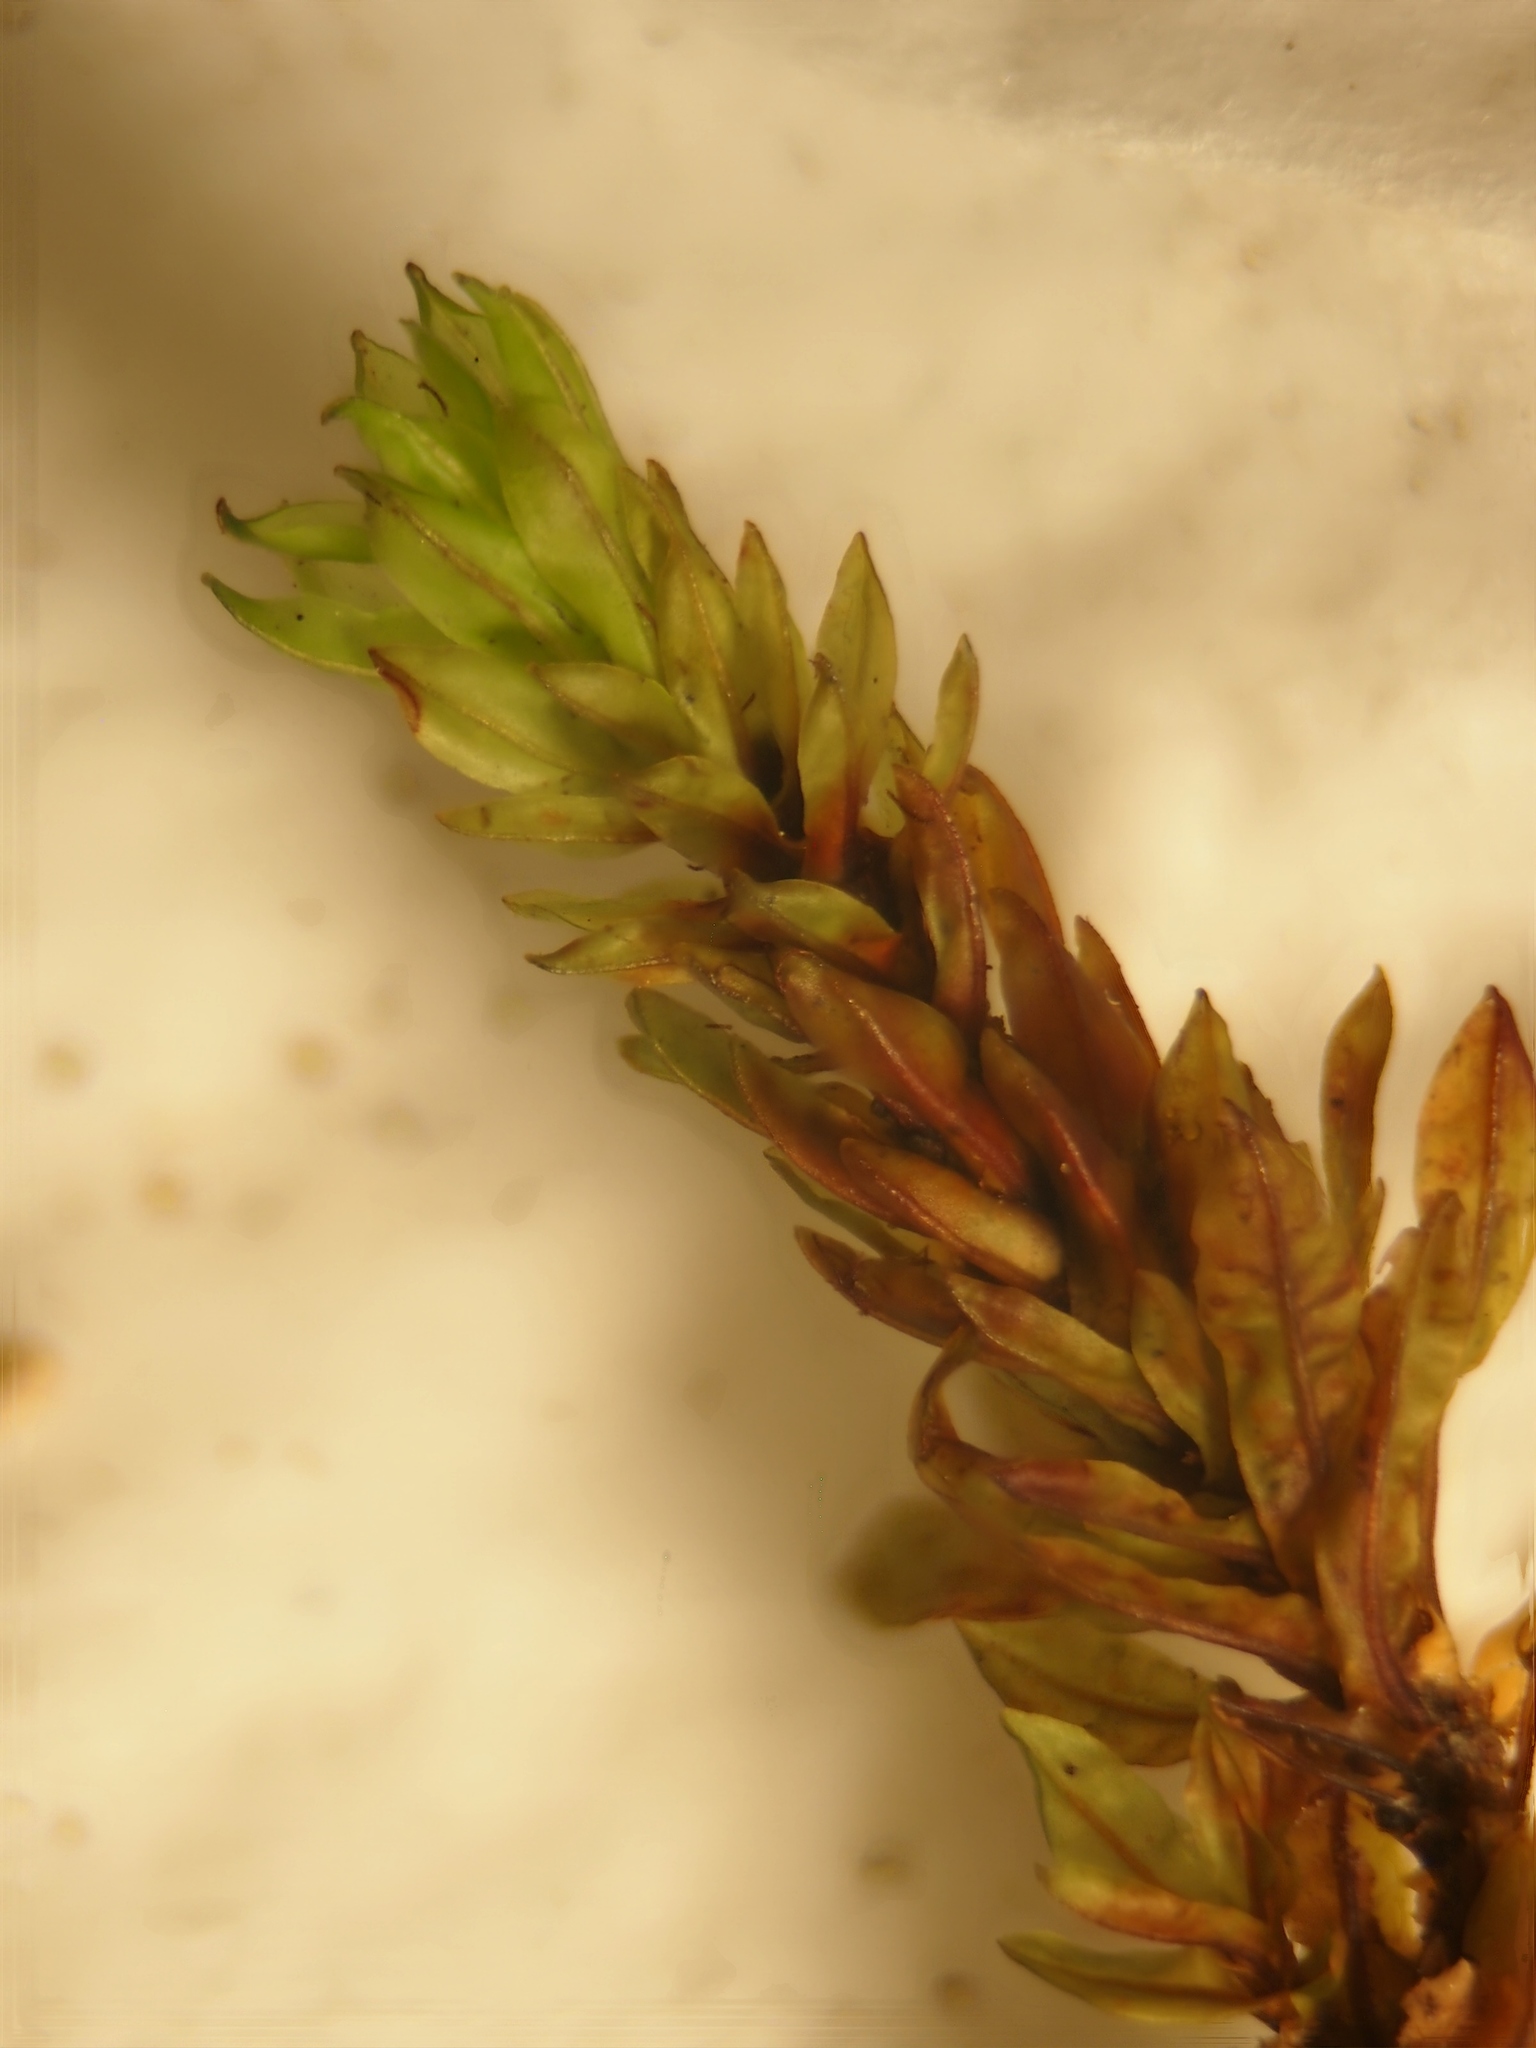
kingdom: Plantae
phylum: Bryophyta
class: Bryopsida
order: Encalyptales
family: Encalyptaceae
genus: Encalypta
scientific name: Encalypta streptocarpa
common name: Spiral extinguisher-moss
